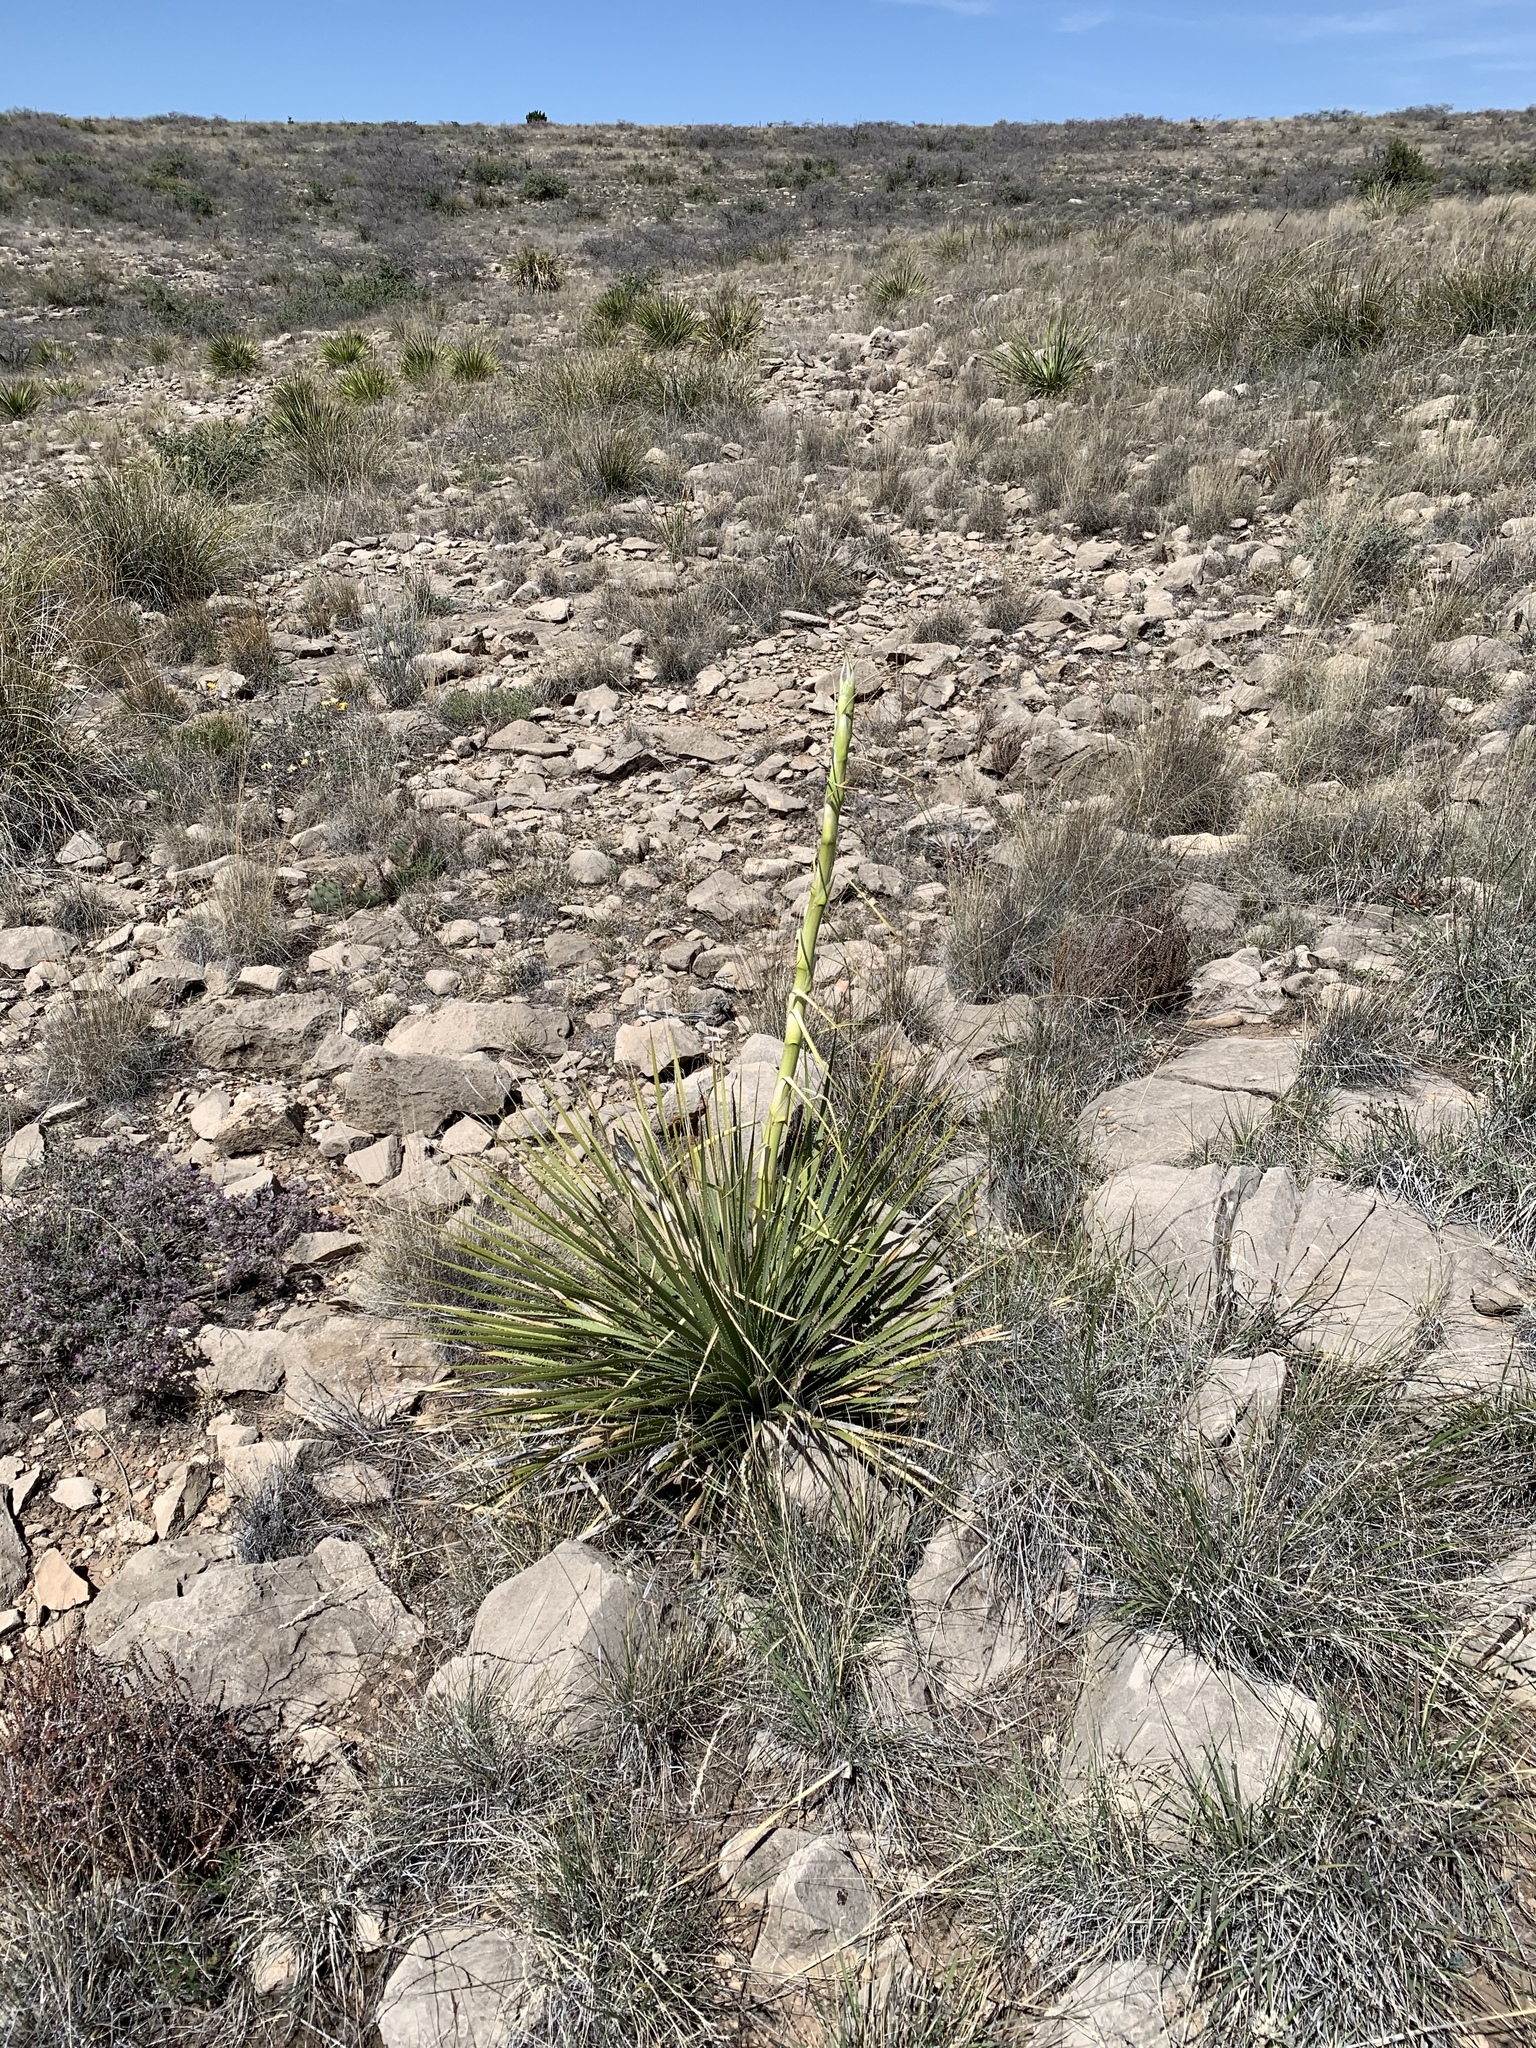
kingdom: Plantae
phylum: Tracheophyta
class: Liliopsida
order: Asparagales
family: Asparagaceae
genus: Yucca
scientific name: Yucca elata
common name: Palmella
